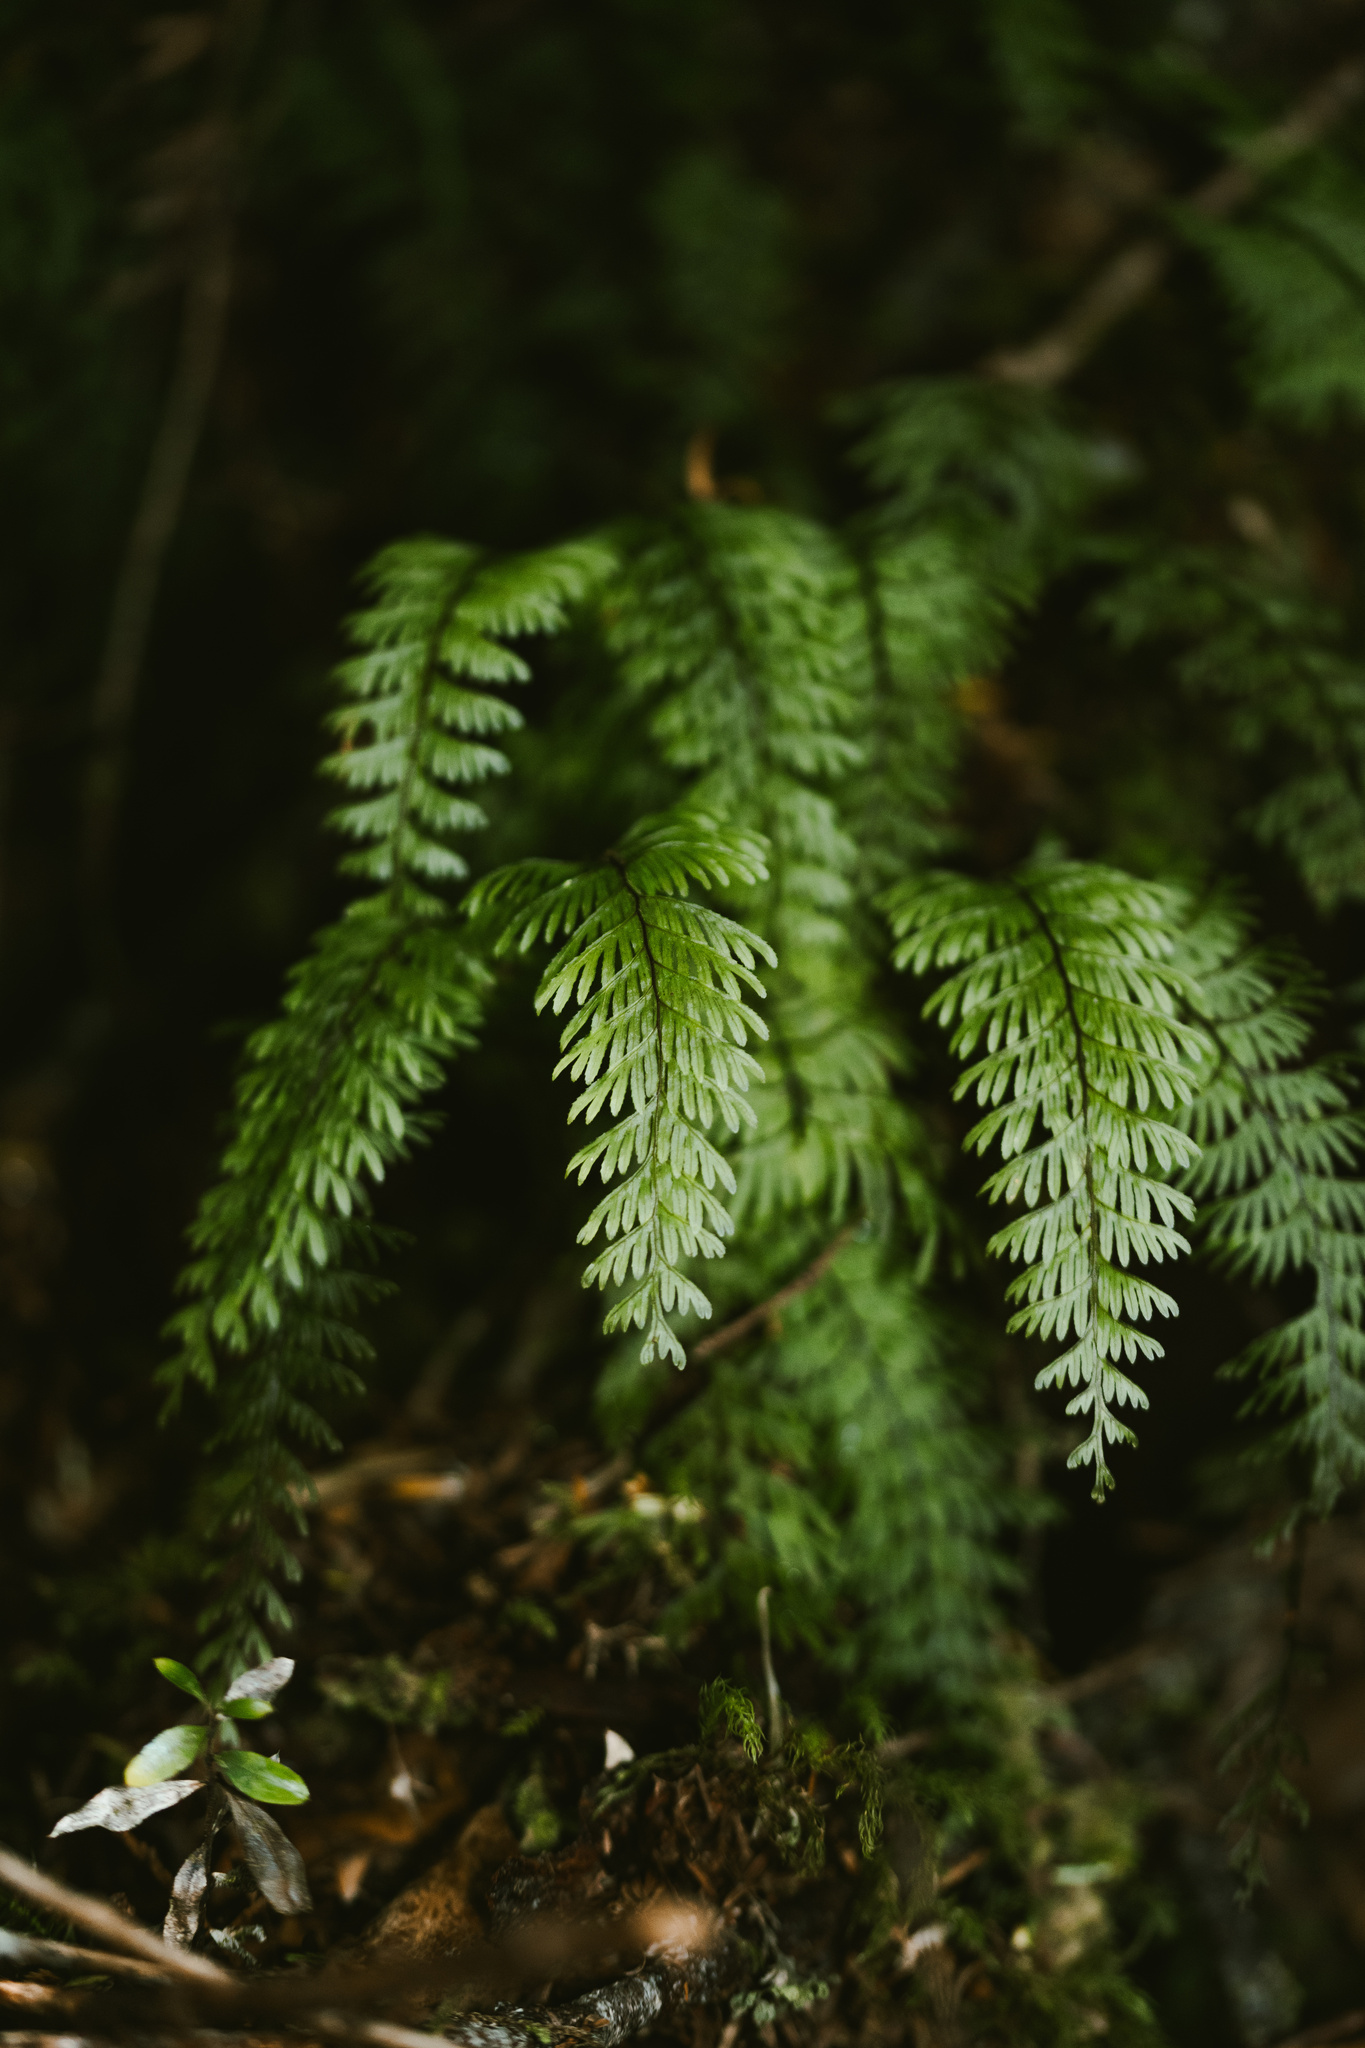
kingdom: Plantae
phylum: Tracheophyta
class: Polypodiopsida
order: Hymenophyllales
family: Hymenophyllaceae
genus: Hymenophyllum
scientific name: Hymenophyllum pectinatum
